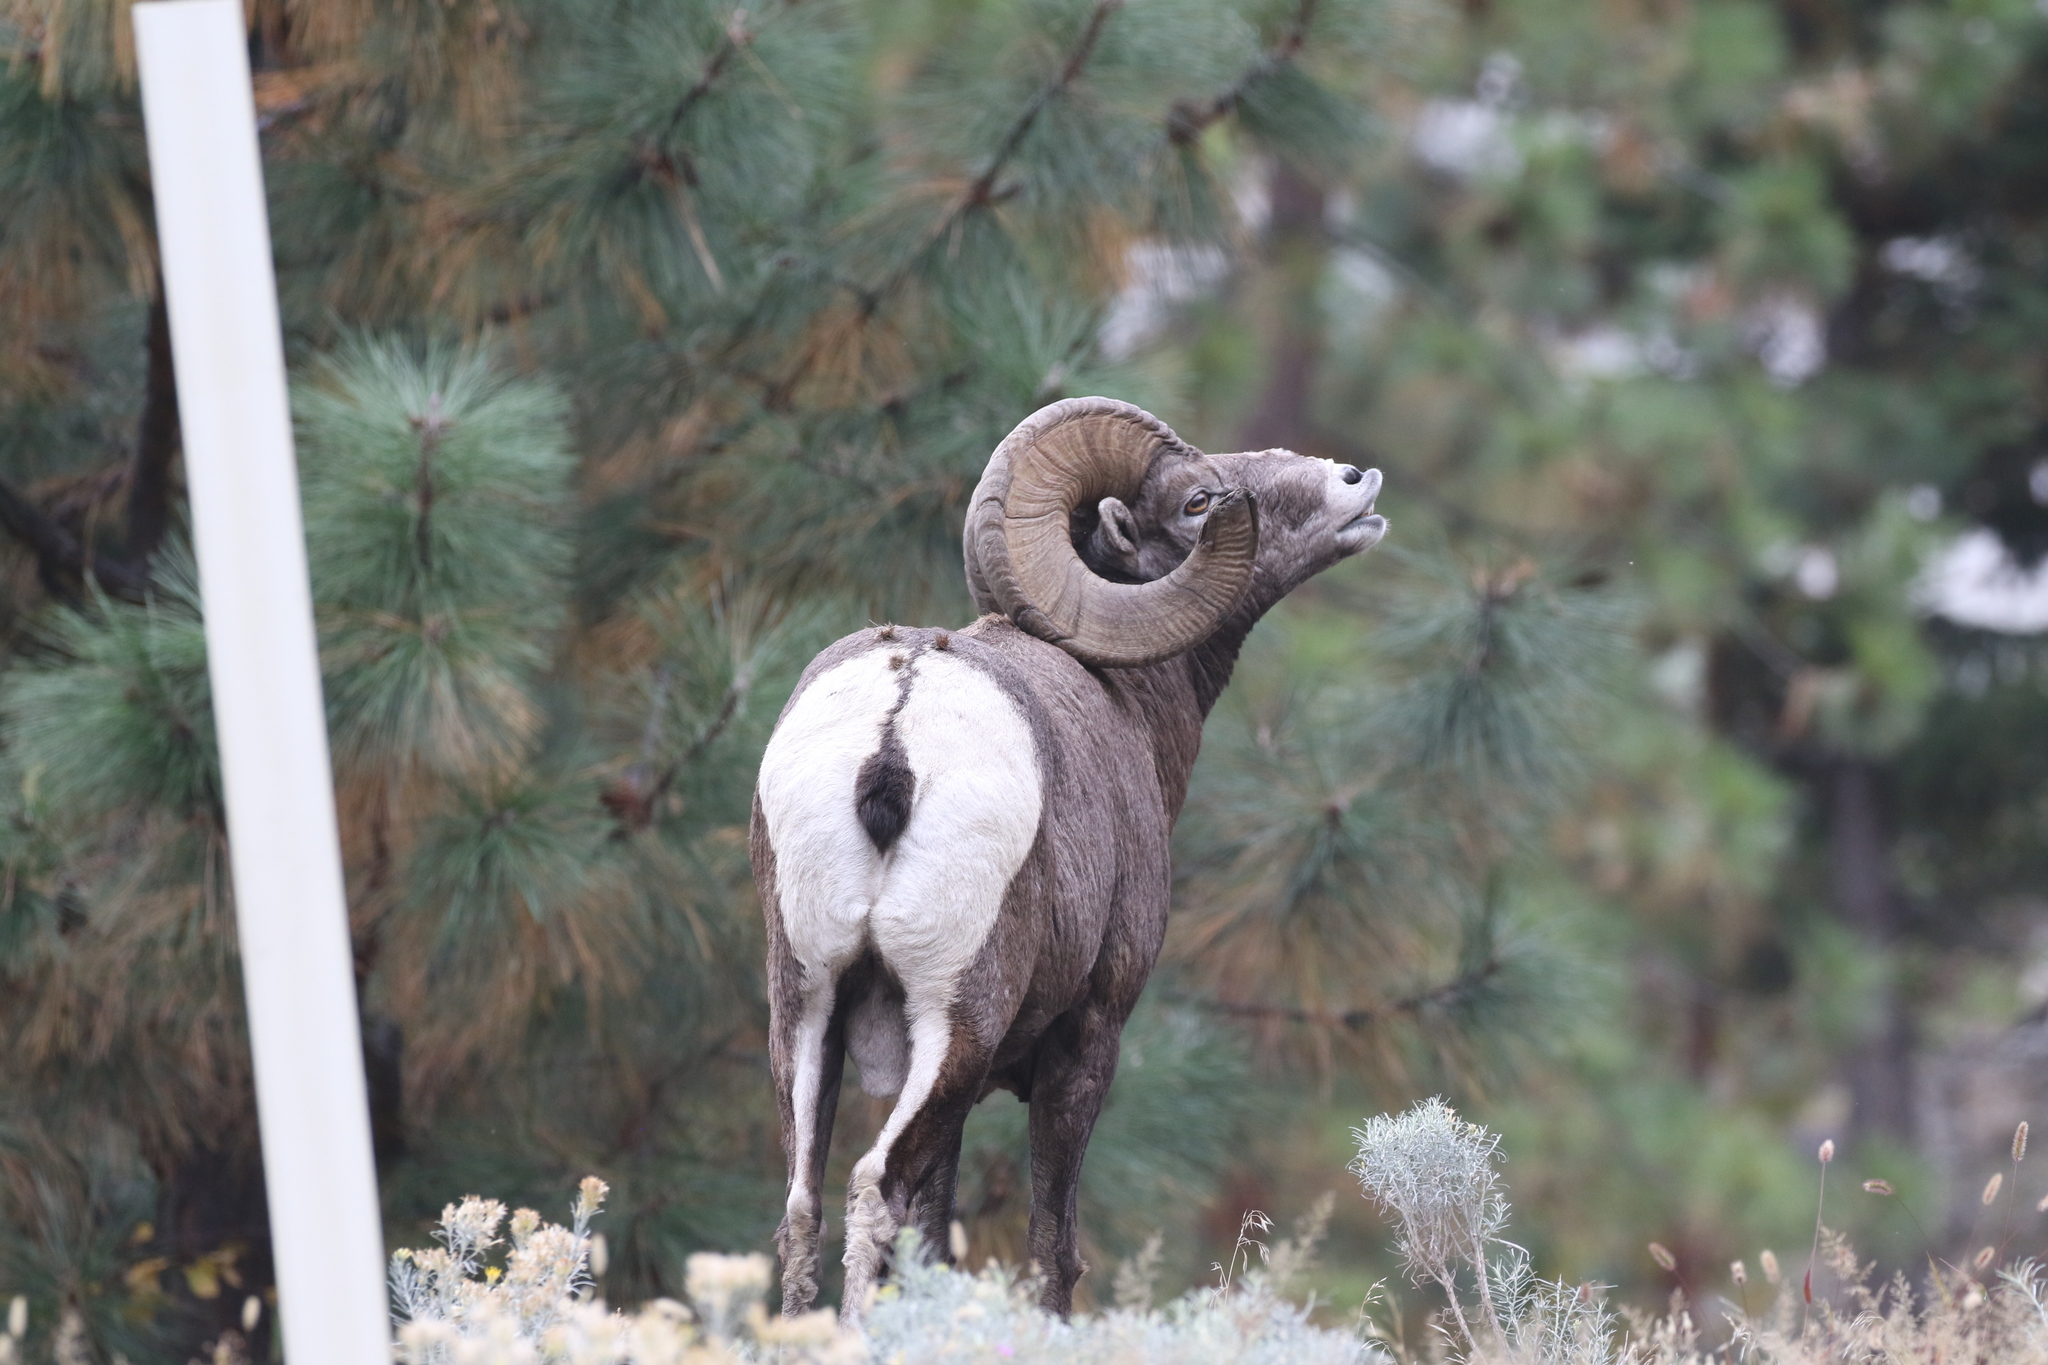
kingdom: Animalia
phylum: Chordata
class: Mammalia
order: Artiodactyla
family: Bovidae
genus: Ovis
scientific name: Ovis canadensis
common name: Bighorn sheep
